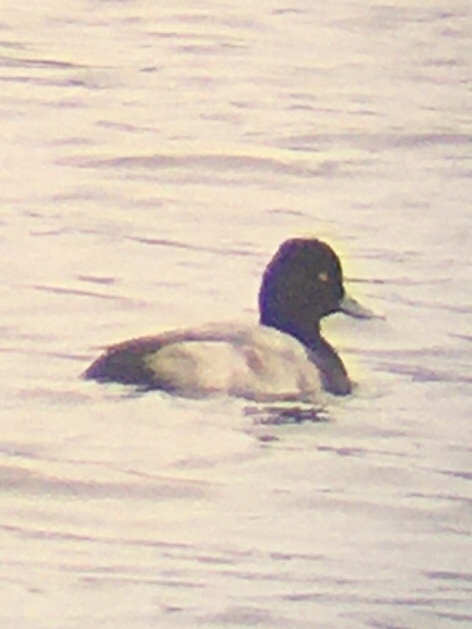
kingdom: Animalia
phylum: Chordata
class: Aves
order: Anseriformes
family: Anatidae
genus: Aythya
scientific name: Aythya affinis
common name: Lesser scaup
